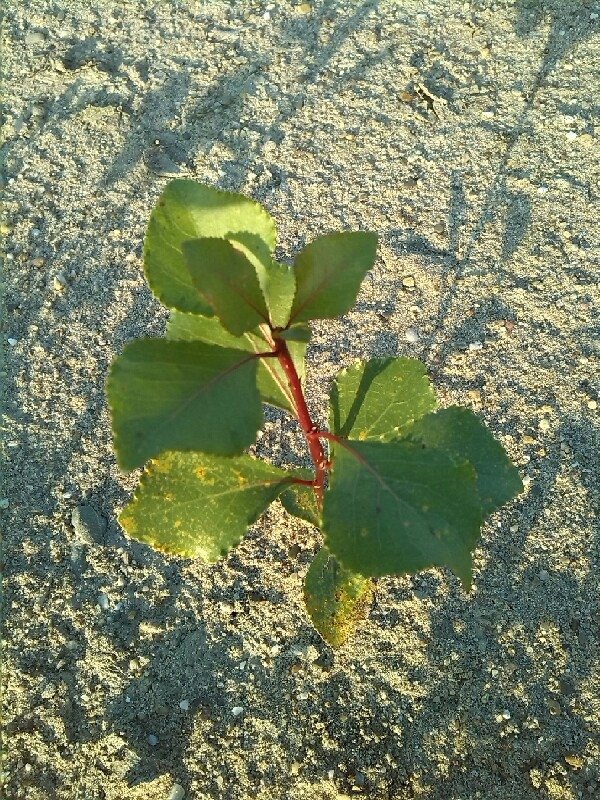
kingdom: Plantae
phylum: Tracheophyta
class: Magnoliopsida
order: Malpighiales
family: Salicaceae
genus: Populus
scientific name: Populus nigra
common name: Black poplar
